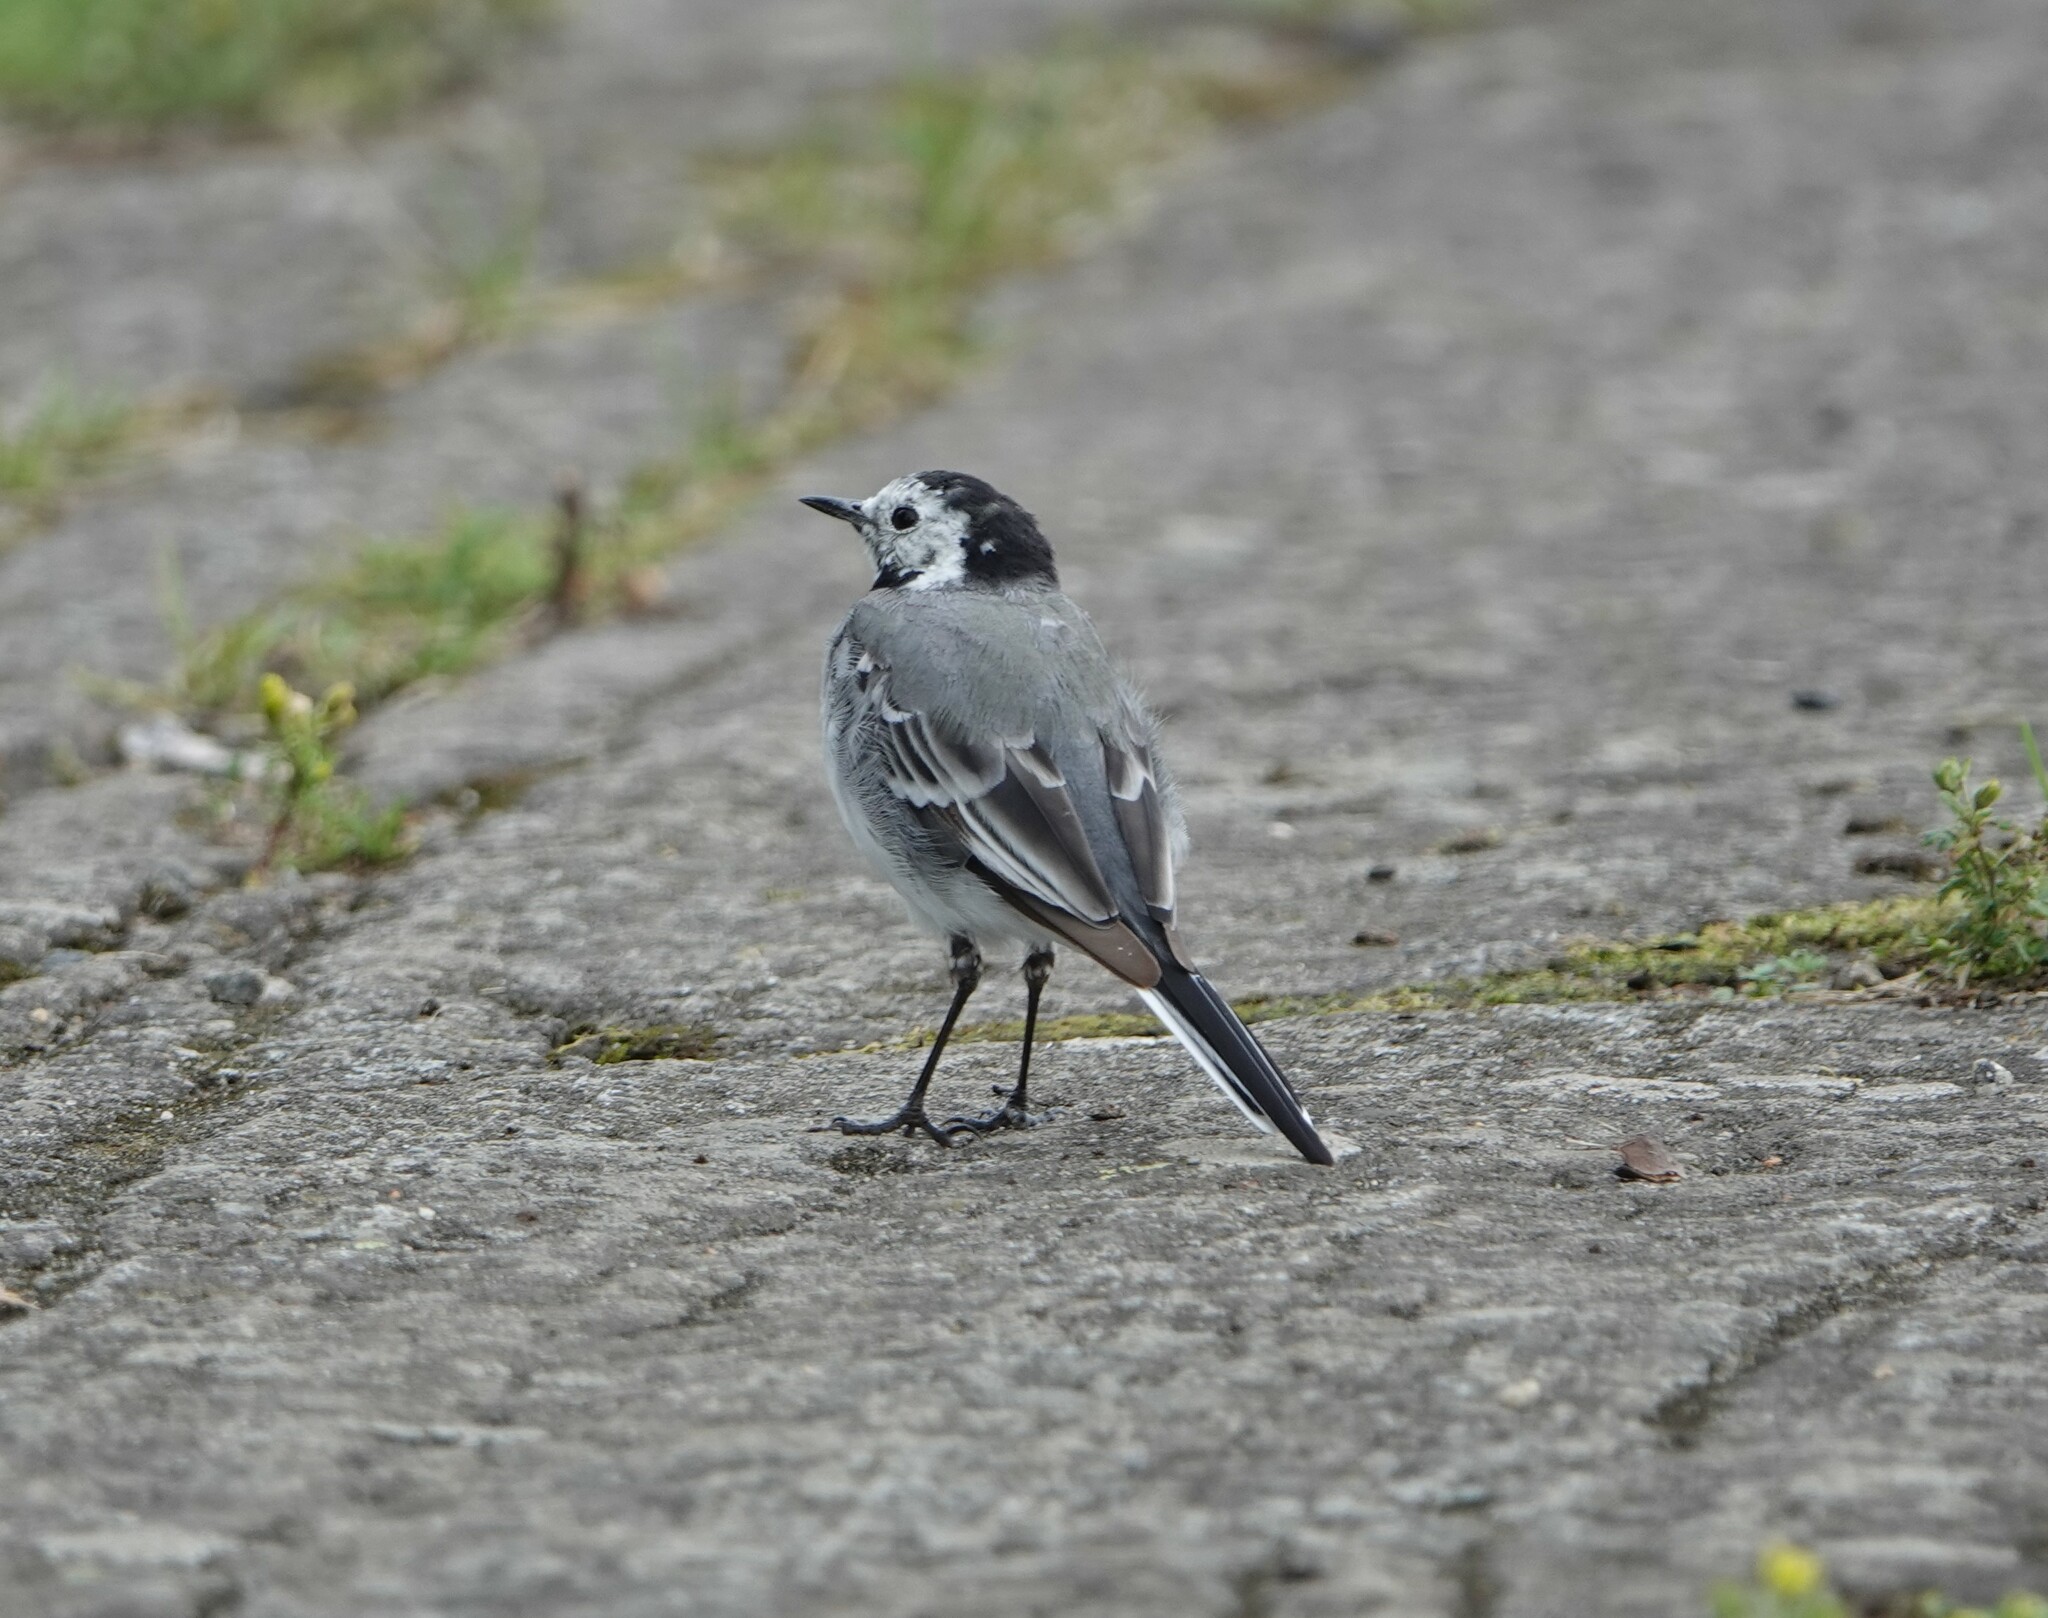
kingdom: Animalia
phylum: Chordata
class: Aves
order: Passeriformes
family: Motacillidae
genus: Motacilla
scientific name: Motacilla alba
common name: White wagtail
